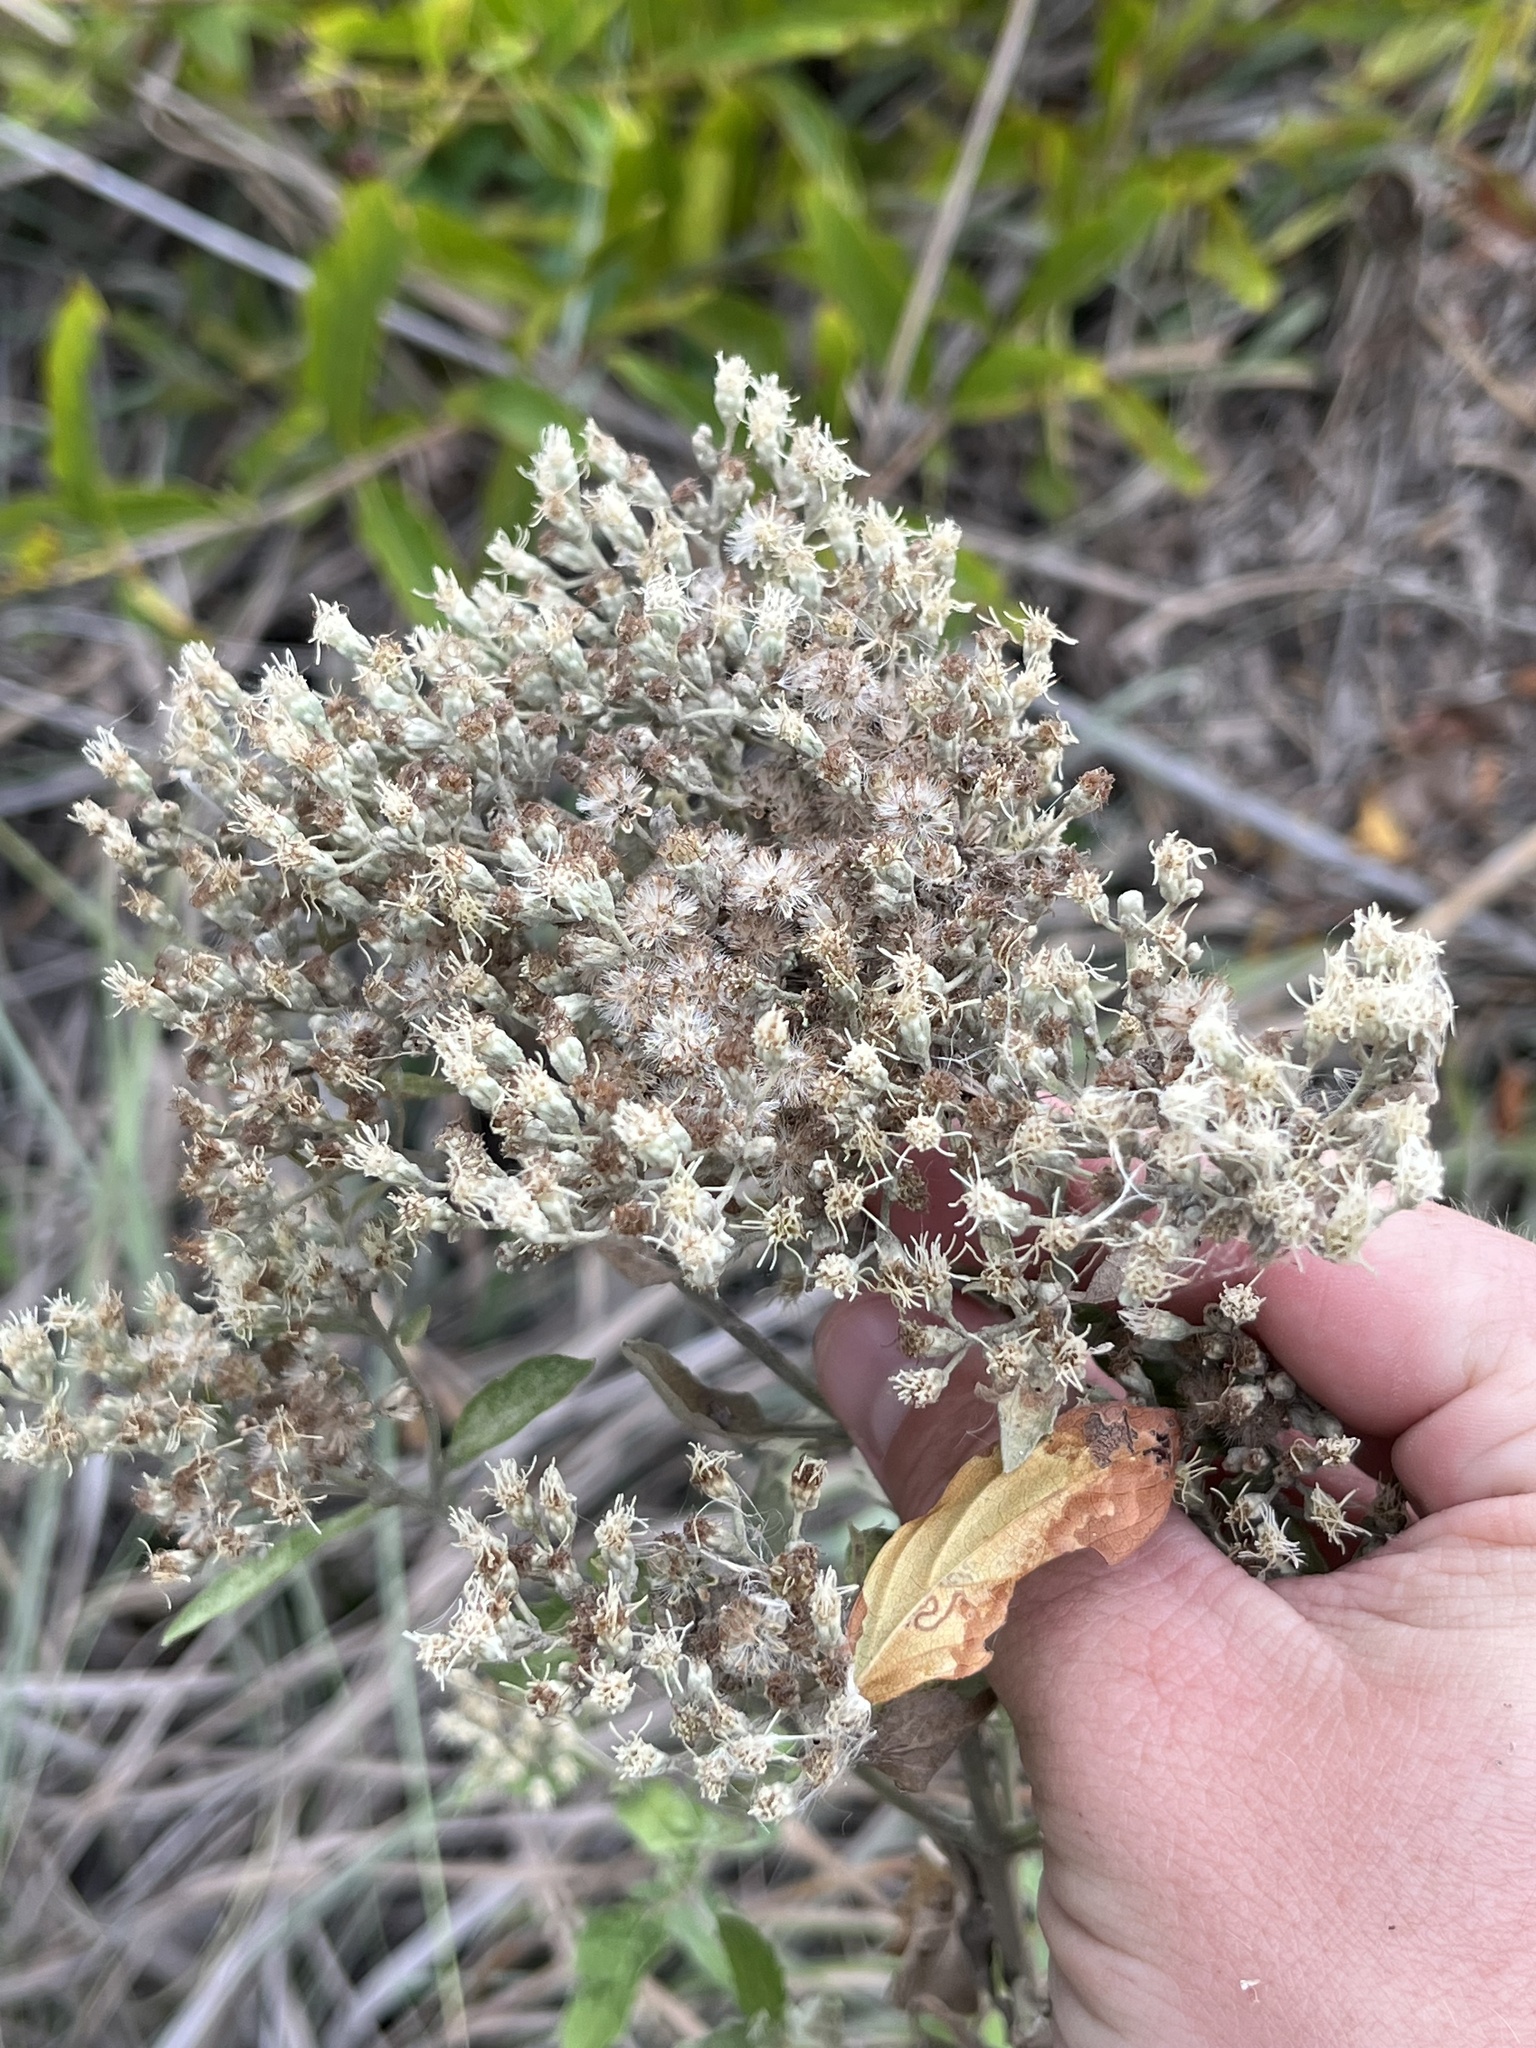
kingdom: Plantae
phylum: Tracheophyta
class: Magnoliopsida
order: Asterales
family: Asteraceae
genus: Eupatorium
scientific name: Eupatorium serotinum
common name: Late boneset
